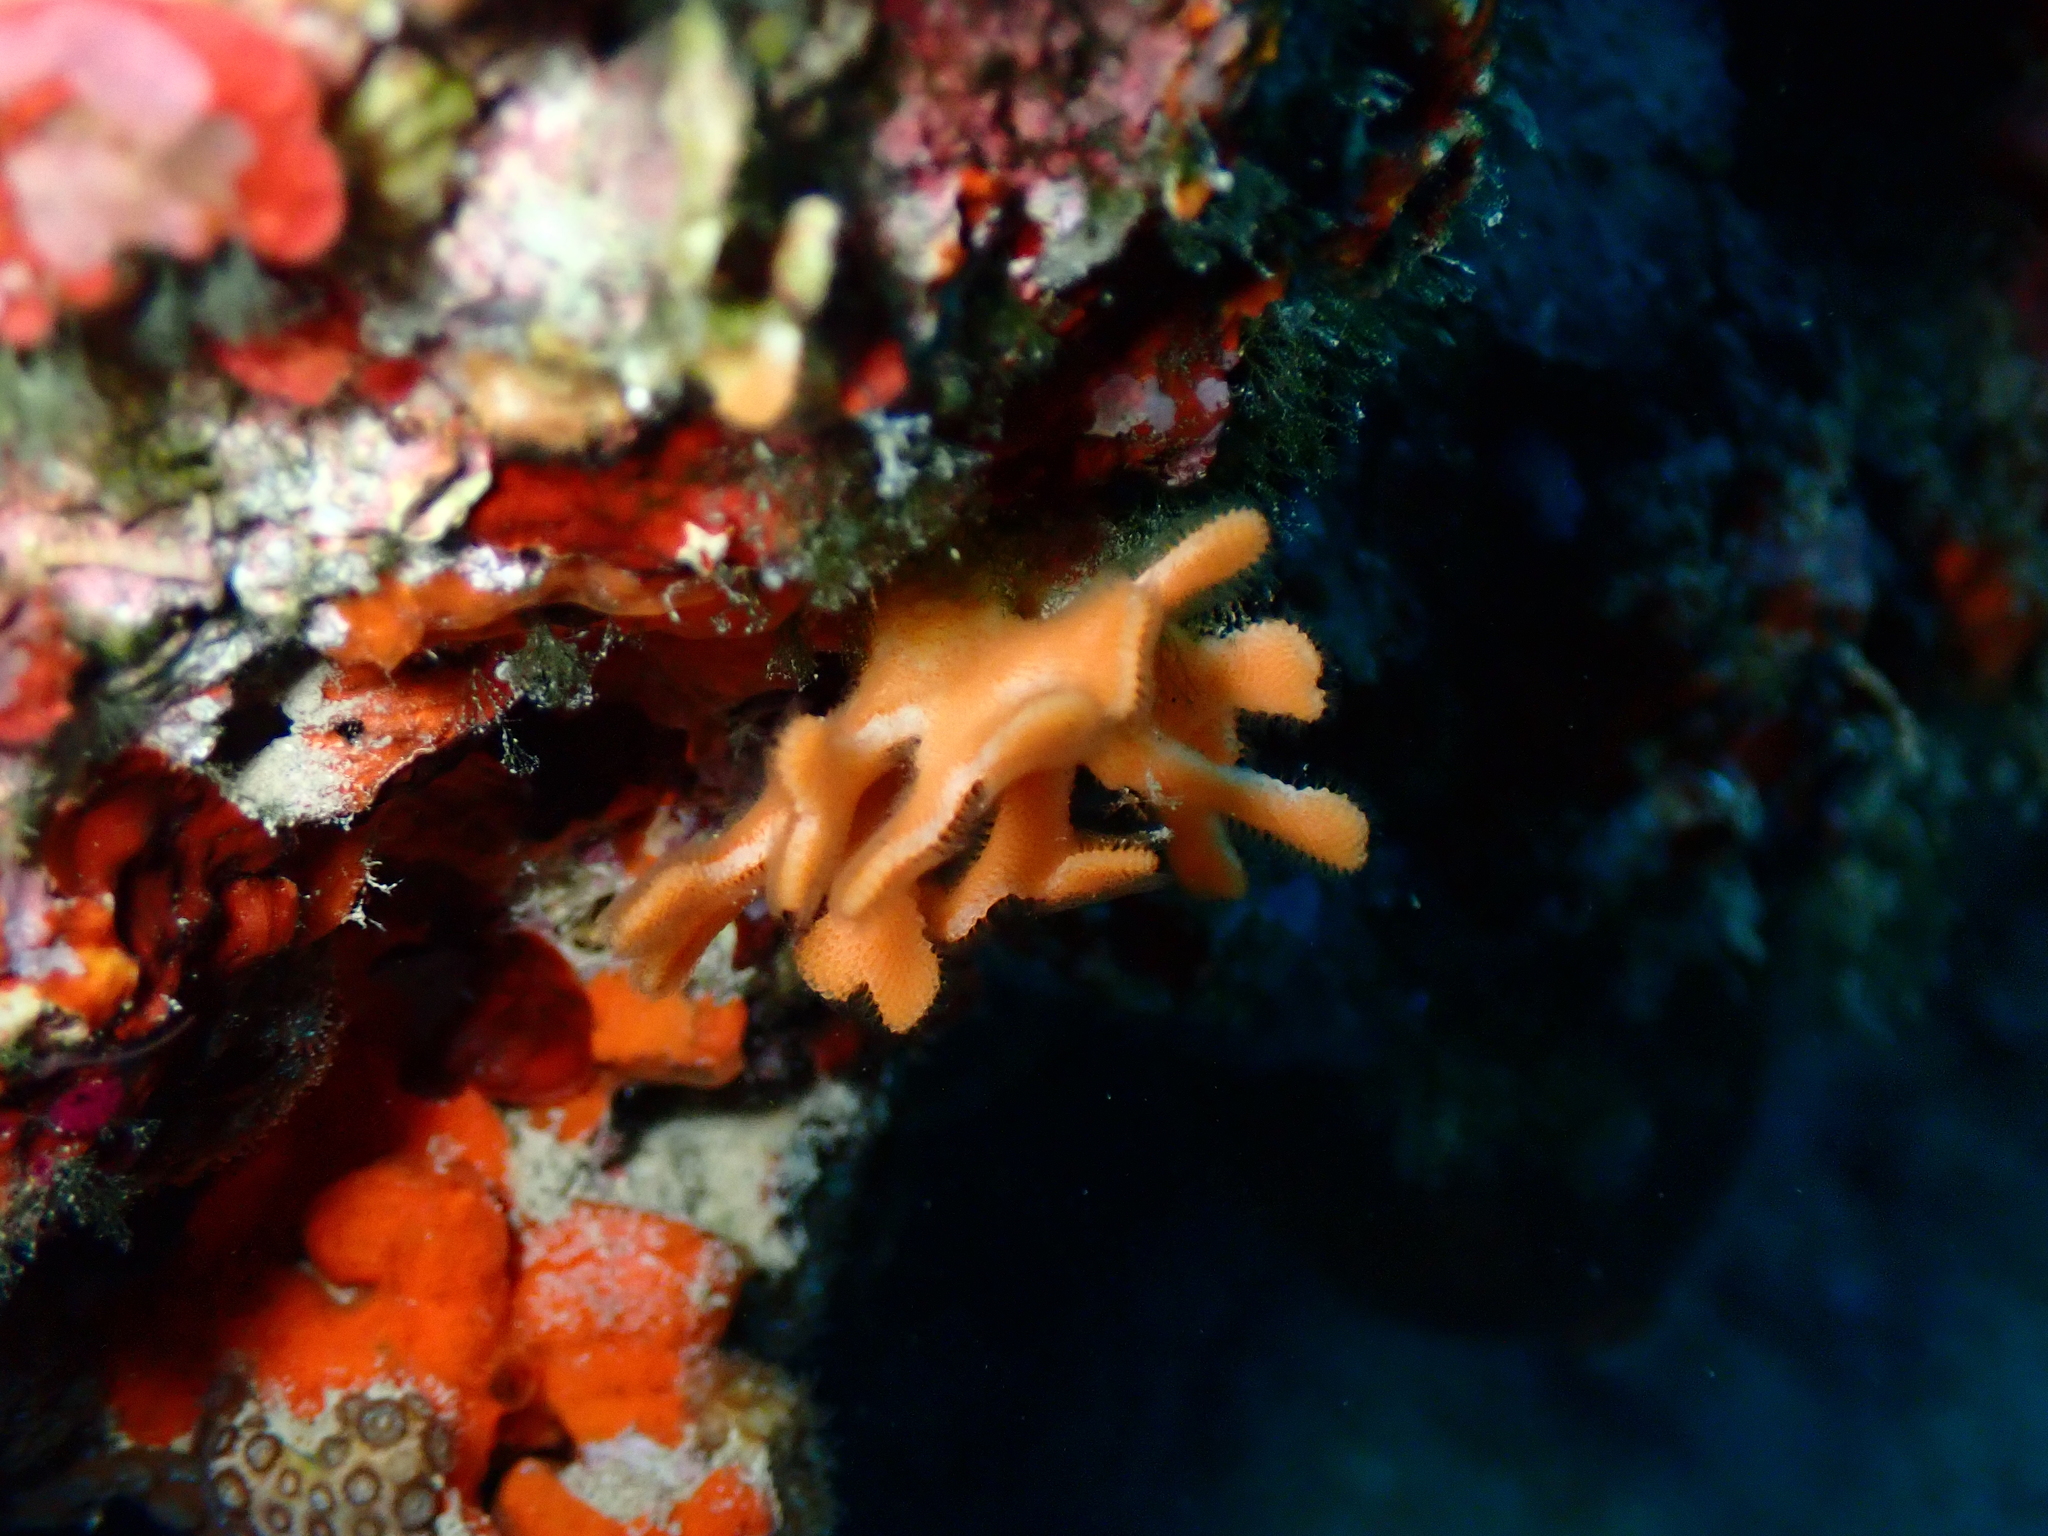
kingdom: Animalia
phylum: Bryozoa
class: Gymnolaemata
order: Cheilostomatida
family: Phidoloporidae
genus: Schizoretepora
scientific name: Schizoretepora serratimargo
